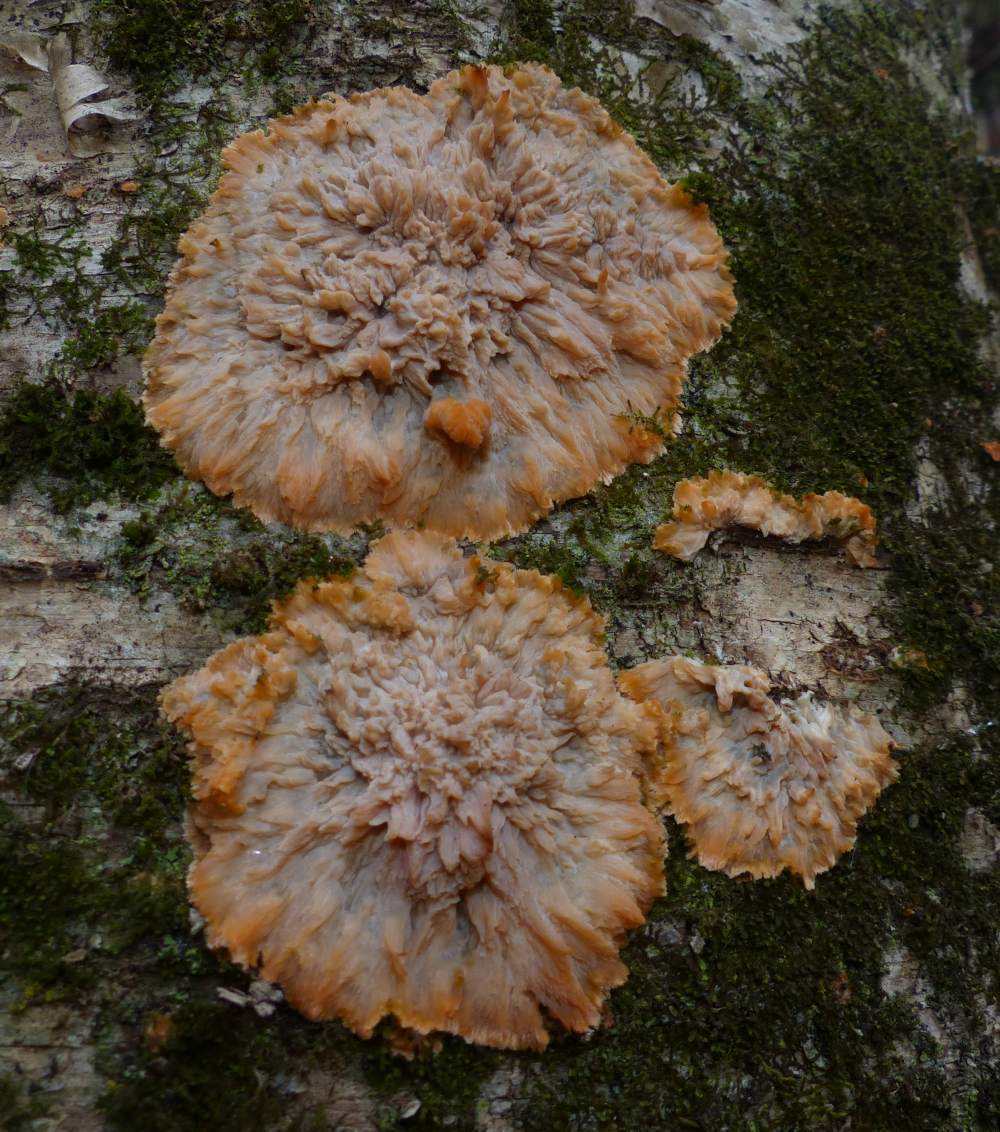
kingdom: Fungi
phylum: Basidiomycota
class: Agaricomycetes
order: Polyporales
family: Meruliaceae
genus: Phlebia
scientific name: Phlebia radiata
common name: Wrinkled crust
